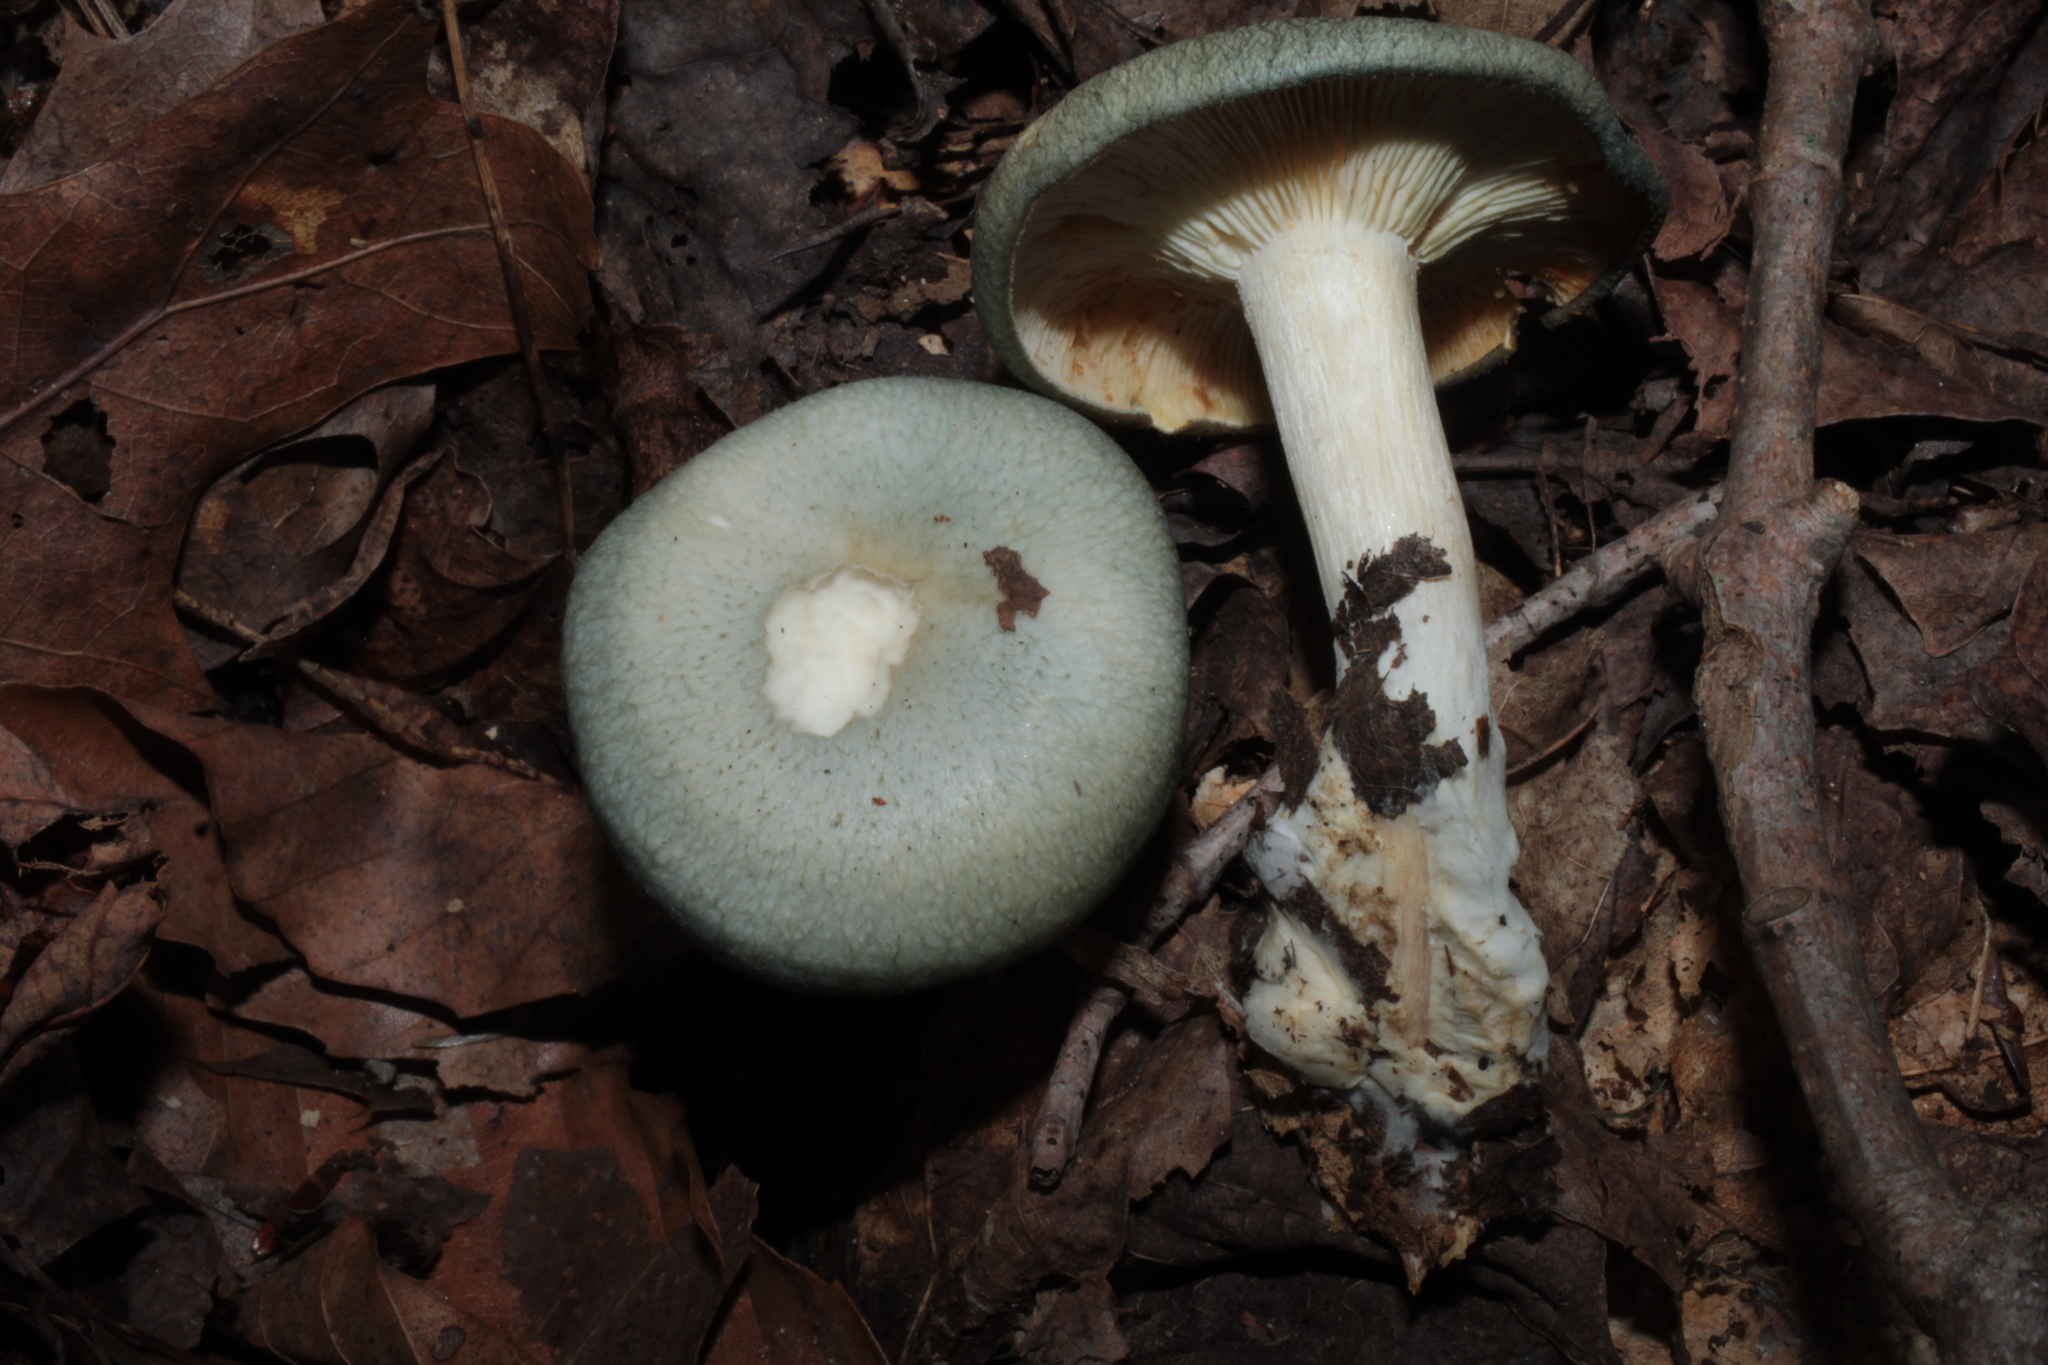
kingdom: Fungi
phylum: Basidiomycota
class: Agaricomycetes
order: Agaricales
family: Tricholomataceae
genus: Collybia
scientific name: Collybia
